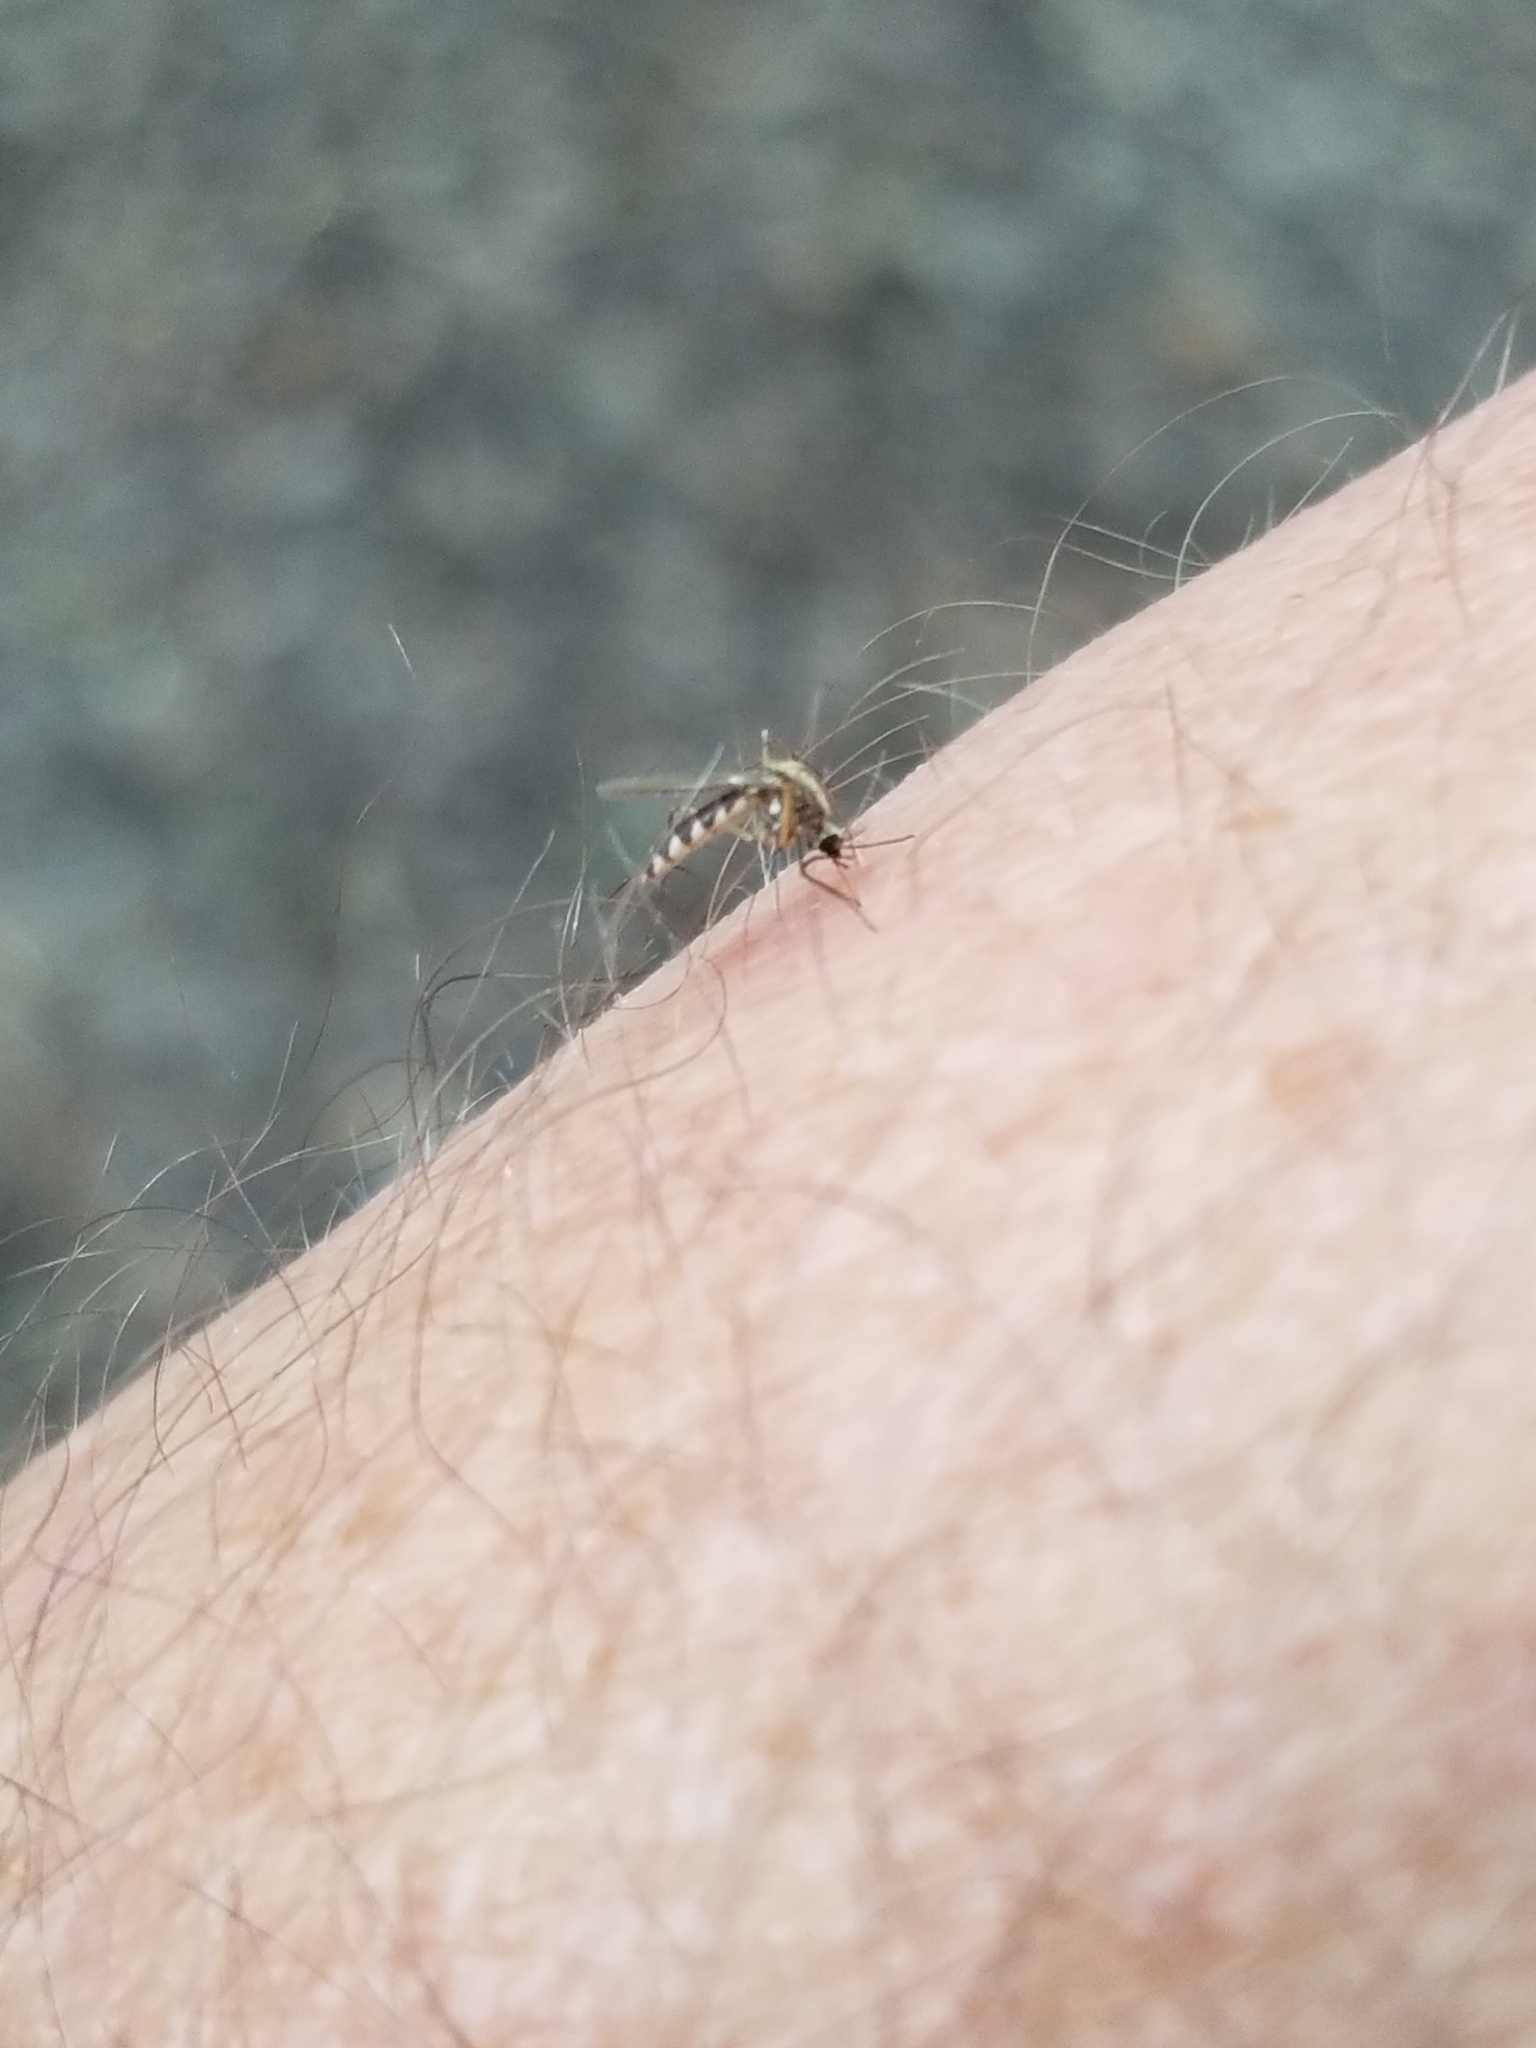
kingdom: Animalia
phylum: Arthropoda
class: Insecta
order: Diptera
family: Culicidae
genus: Aedes
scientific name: Aedes trivittatus
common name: Plains floodwater mosquito
